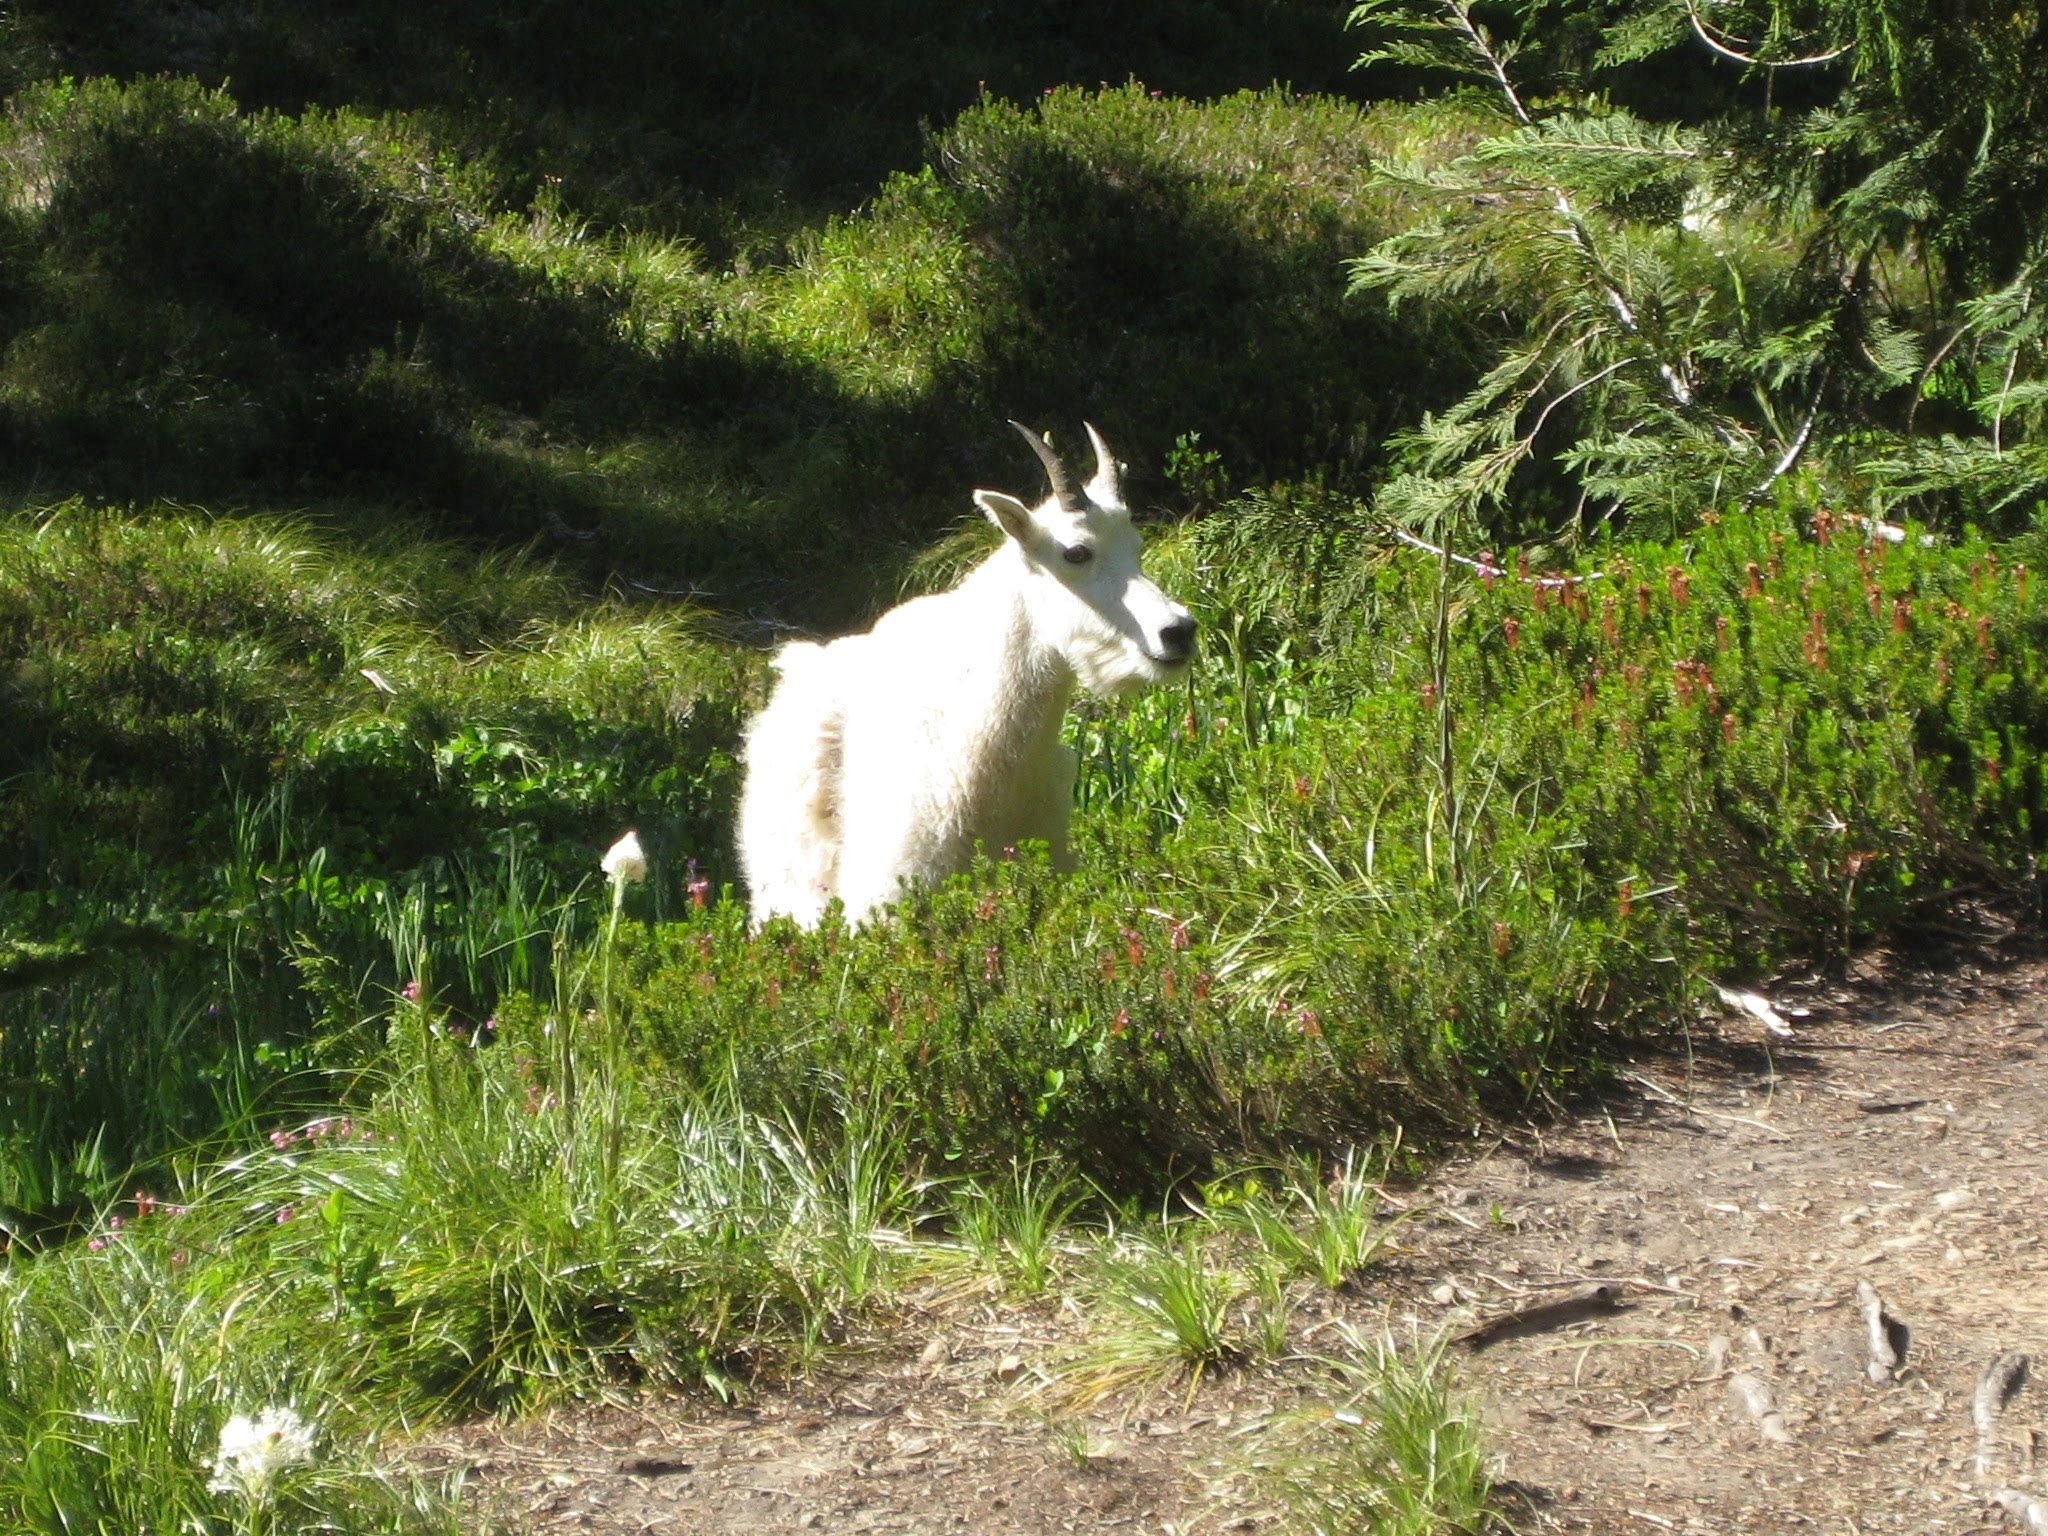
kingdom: Animalia
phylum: Chordata
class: Mammalia
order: Artiodactyla
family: Bovidae
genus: Oreamnos
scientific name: Oreamnos americanus
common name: Mountain goat
